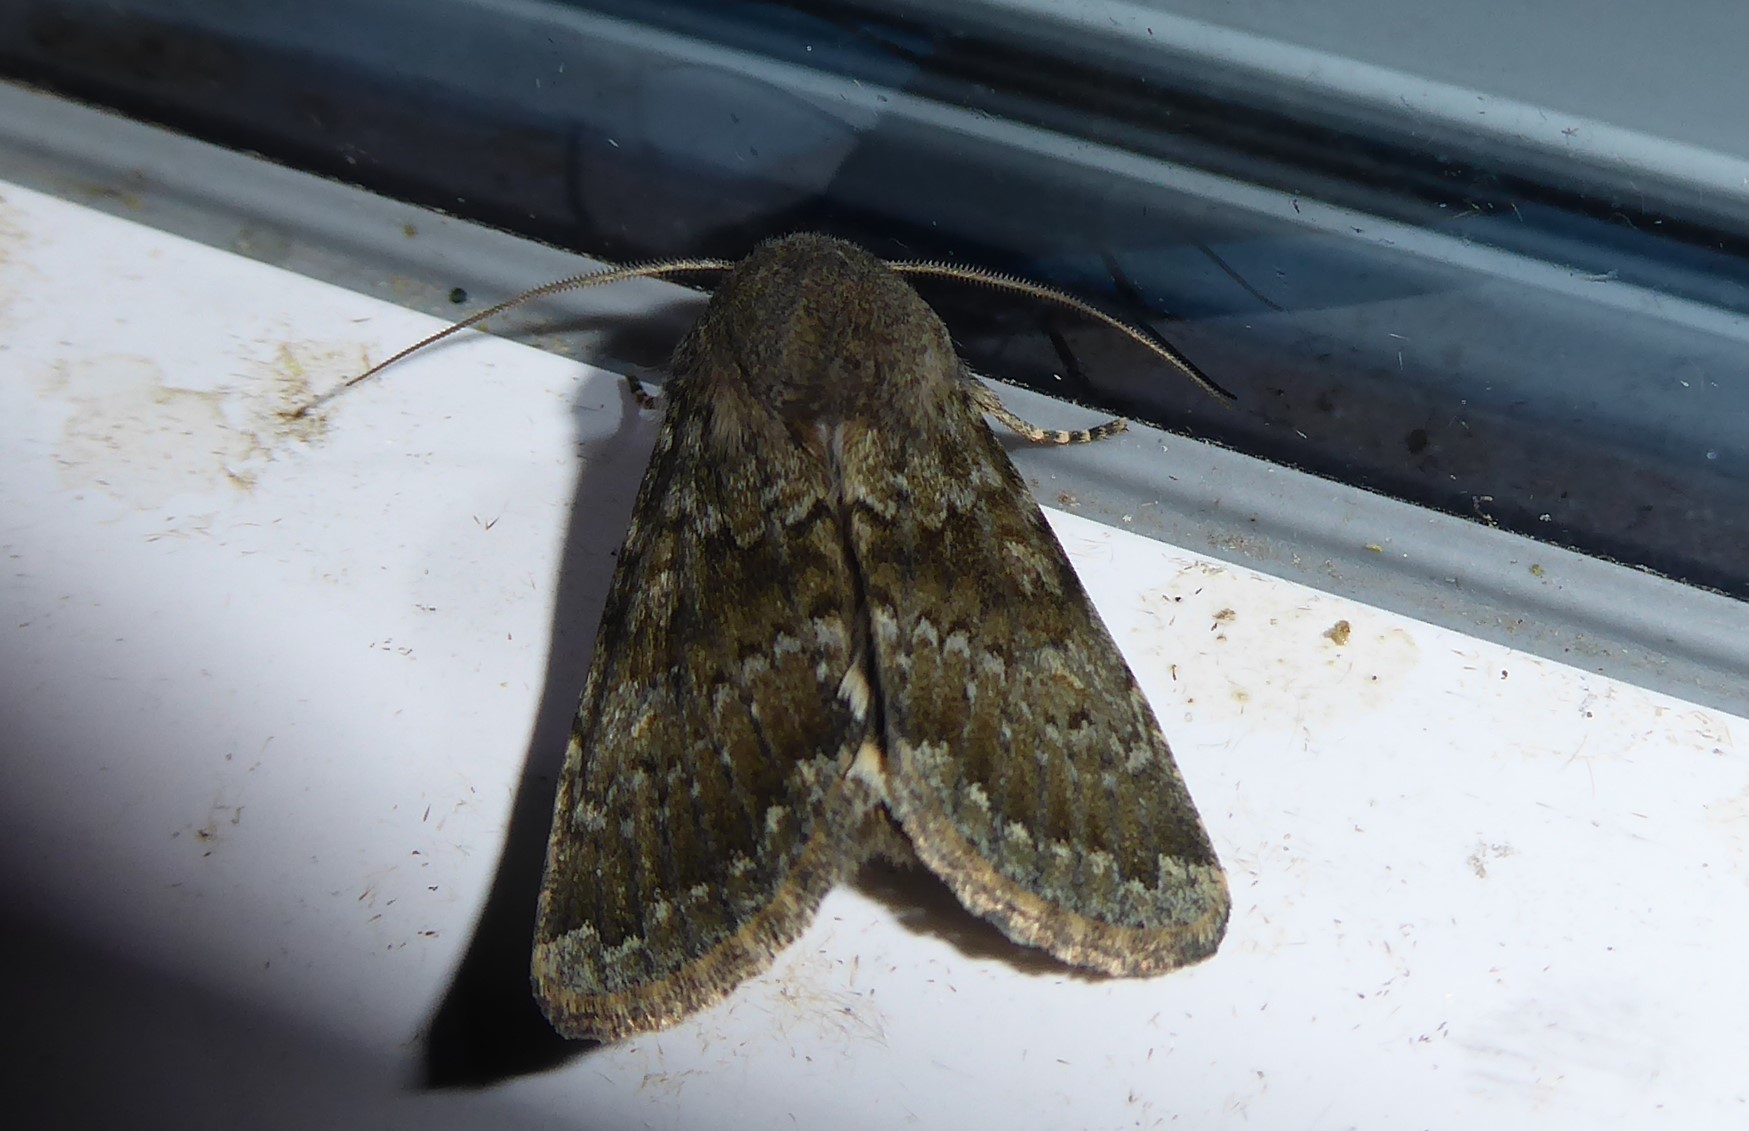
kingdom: Animalia
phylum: Arthropoda
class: Insecta
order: Lepidoptera
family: Noctuidae
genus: Ichneutica
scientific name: Ichneutica moderata
